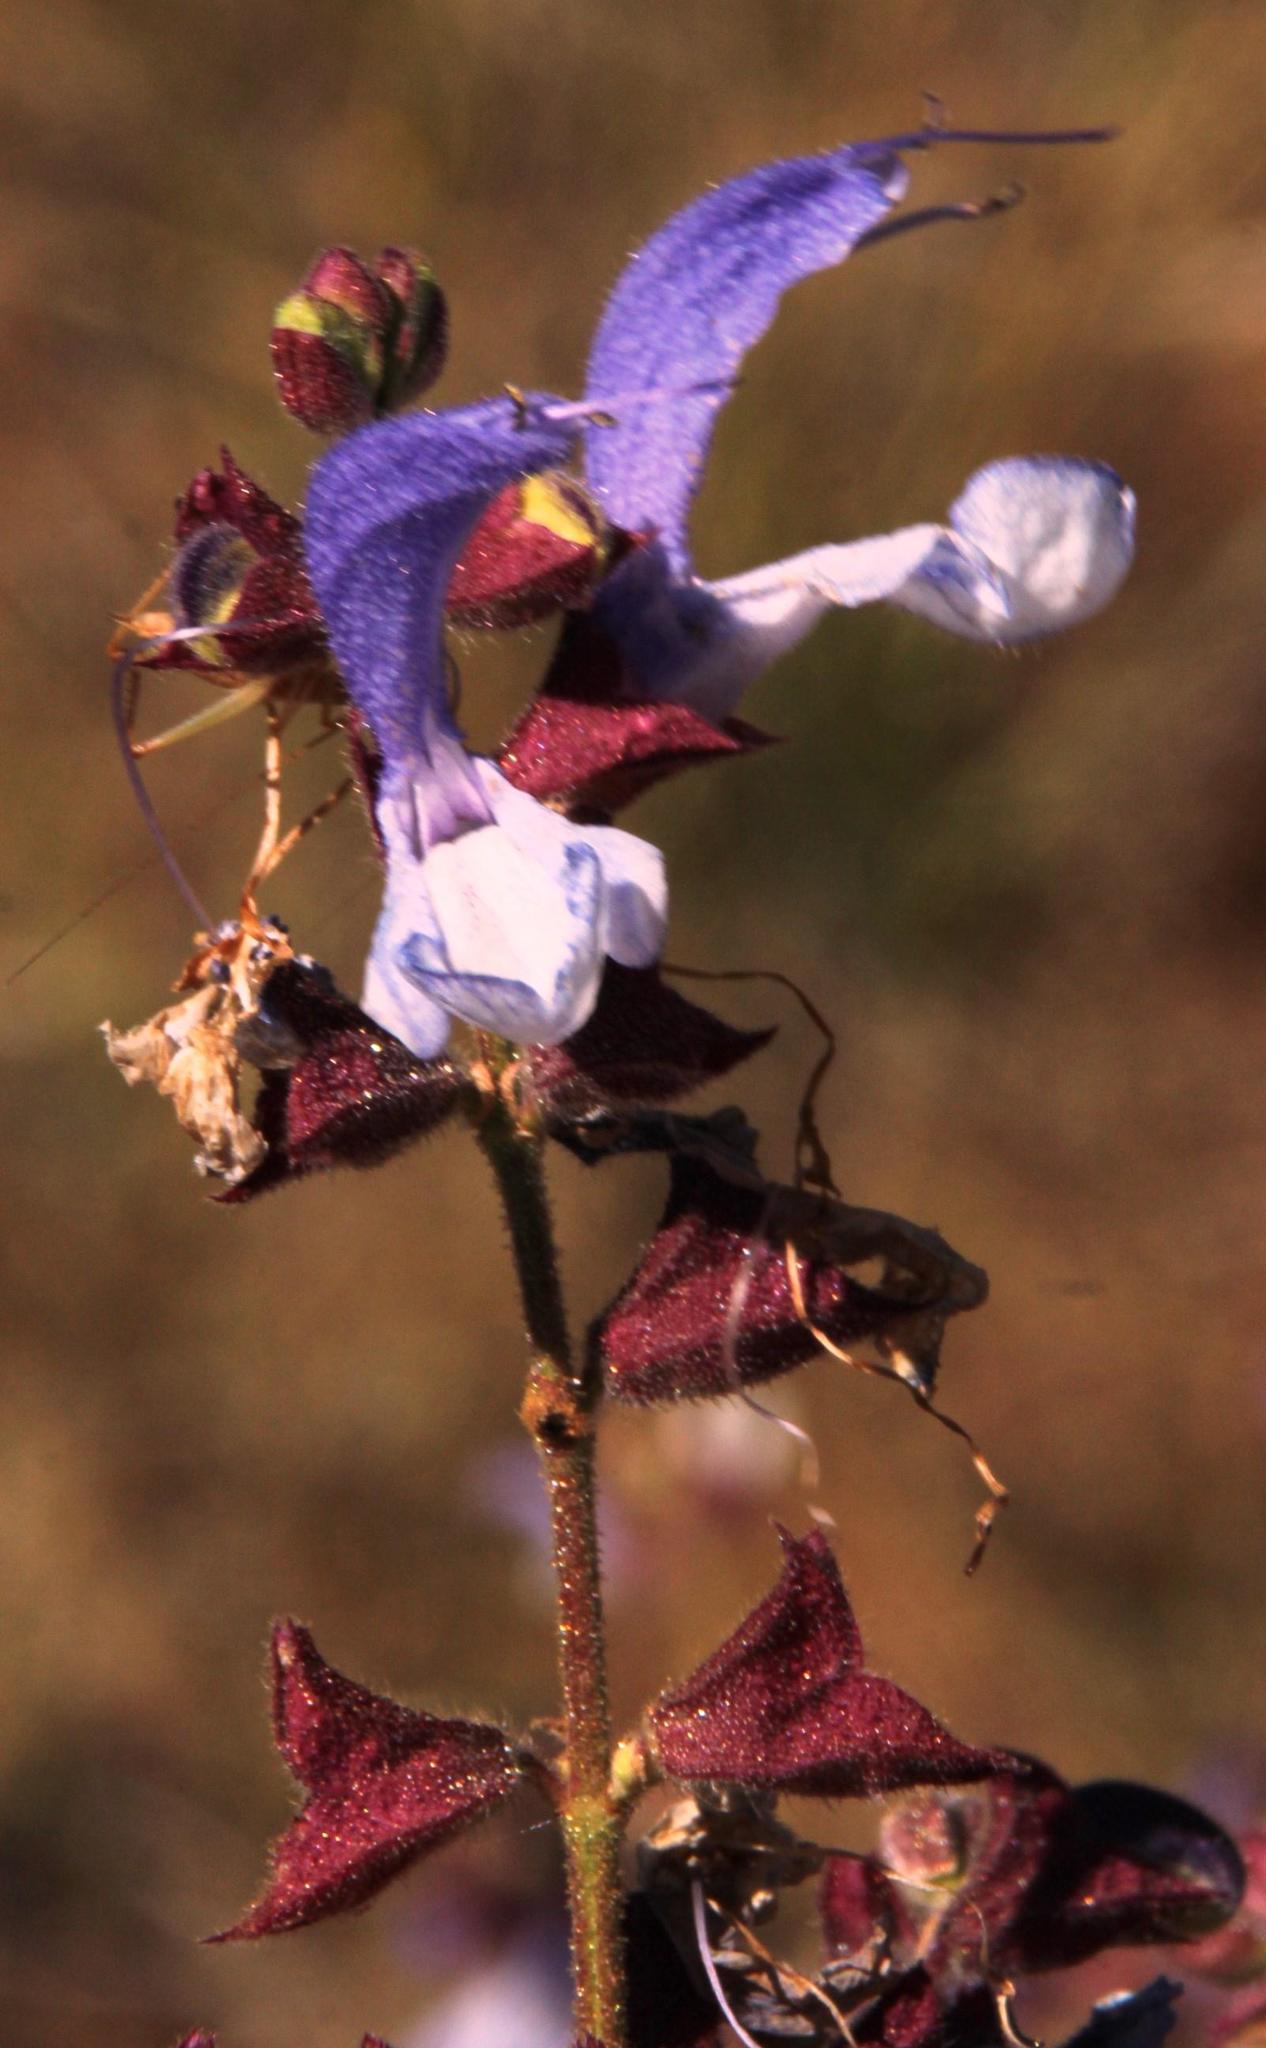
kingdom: Plantae
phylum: Tracheophyta
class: Magnoliopsida
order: Lamiales
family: Lamiaceae
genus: Salvia
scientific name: Salvia chamelaeagnea
